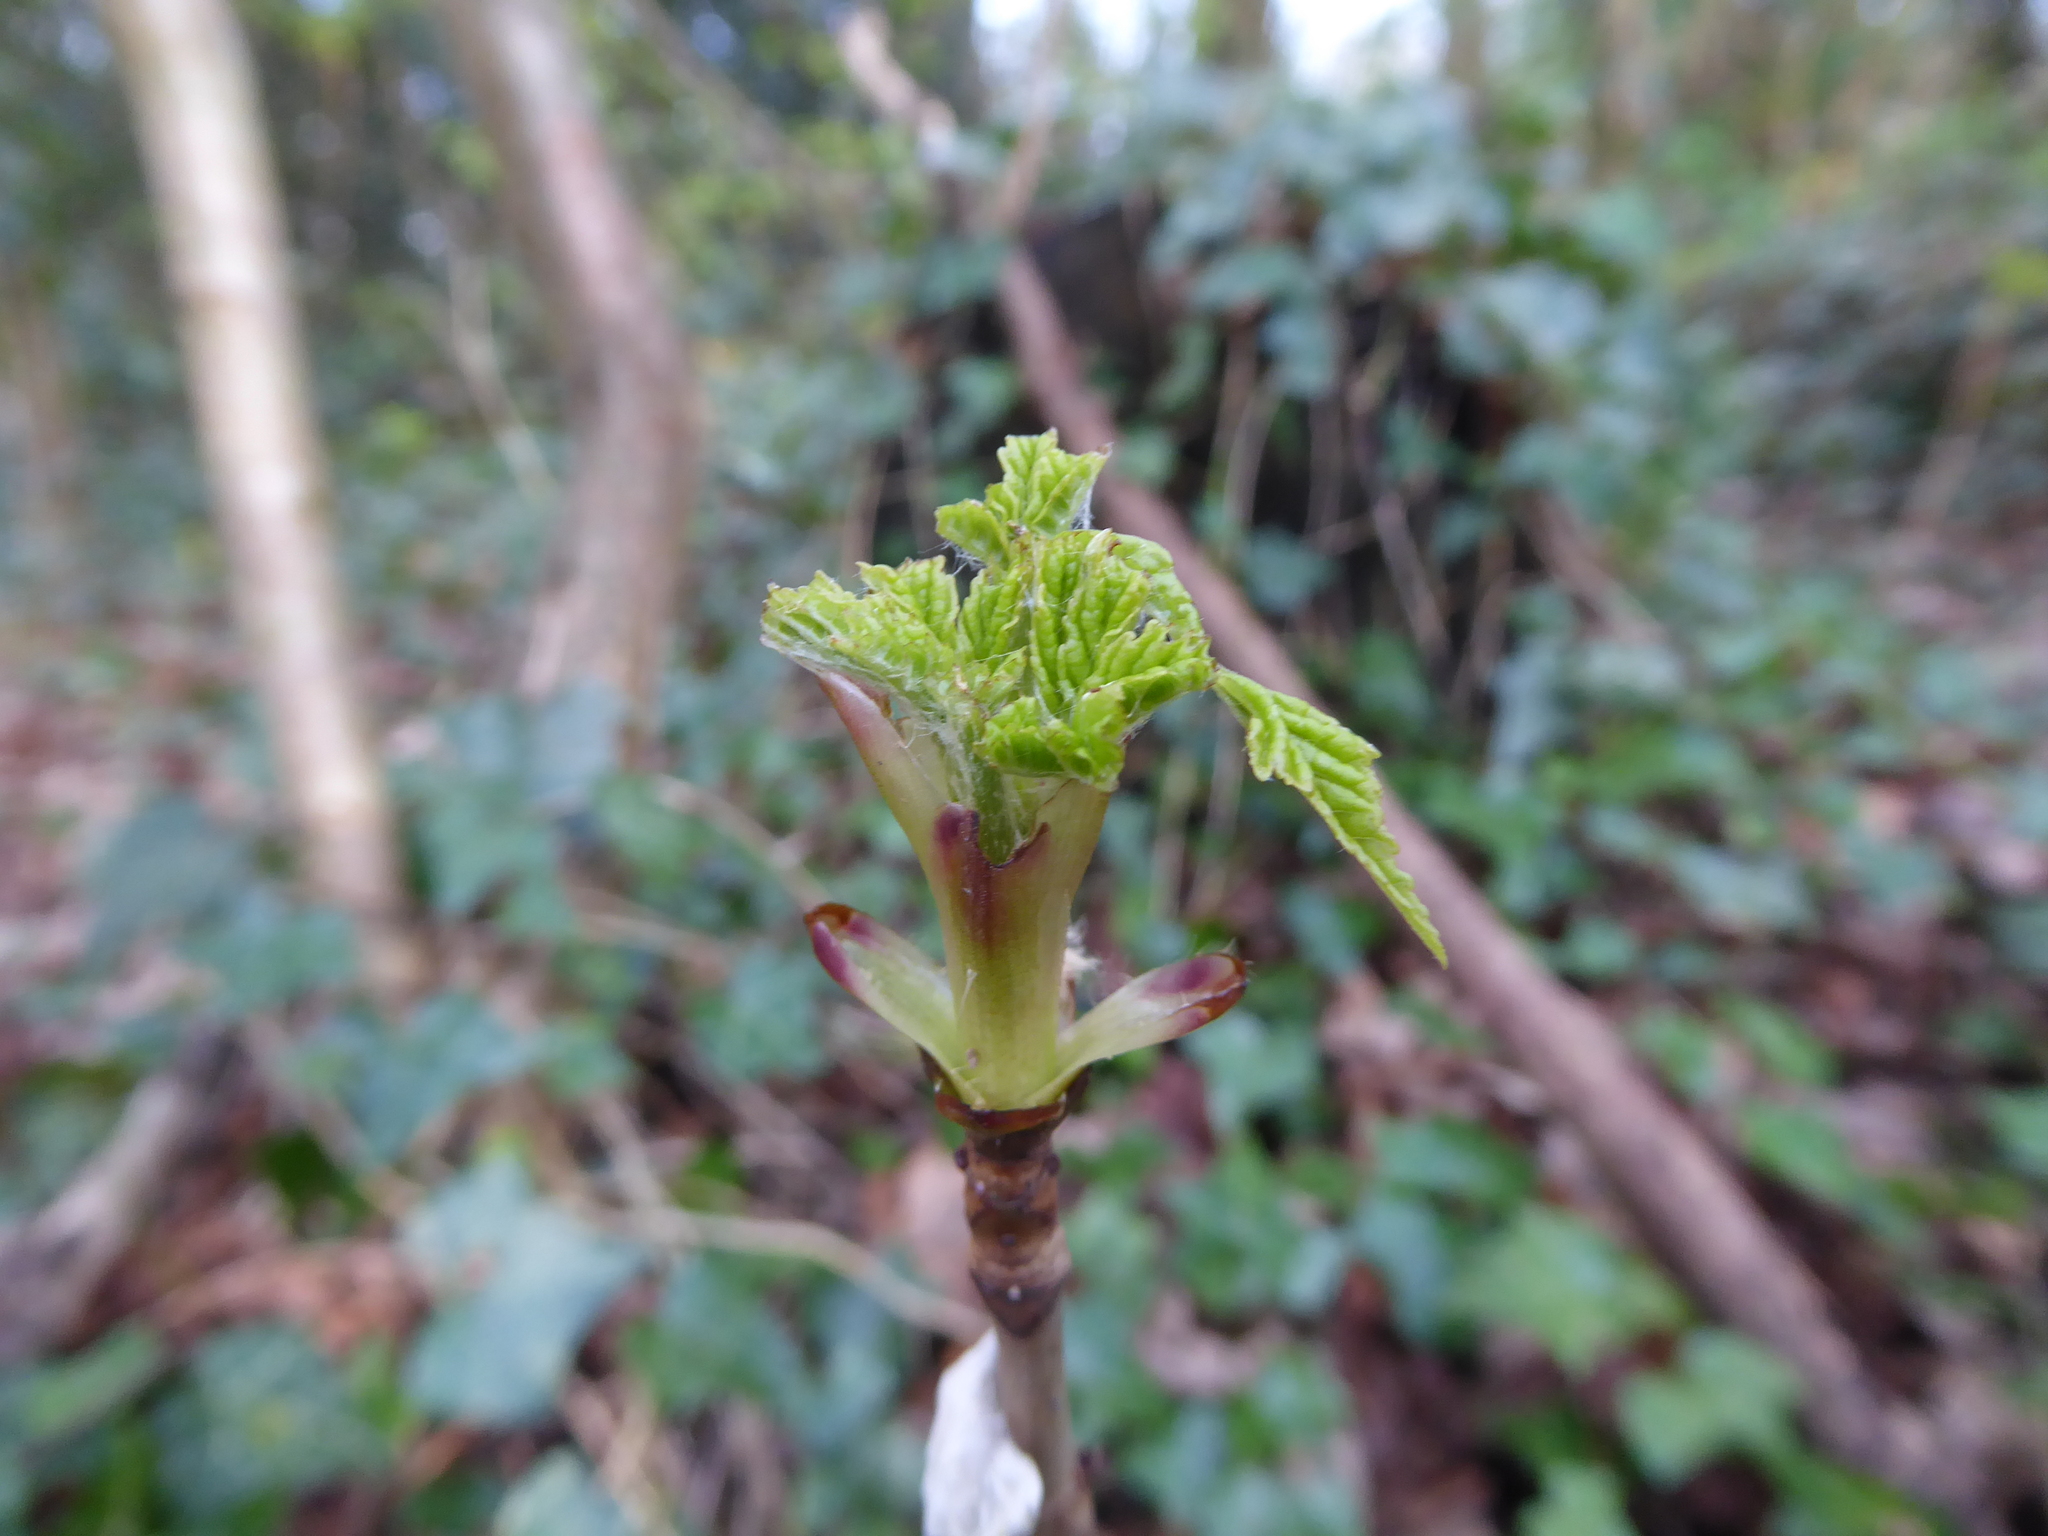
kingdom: Plantae
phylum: Tracheophyta
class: Magnoliopsida
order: Sapindales
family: Sapindaceae
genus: Aesculus
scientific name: Aesculus hippocastanum
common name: Horse-chestnut
